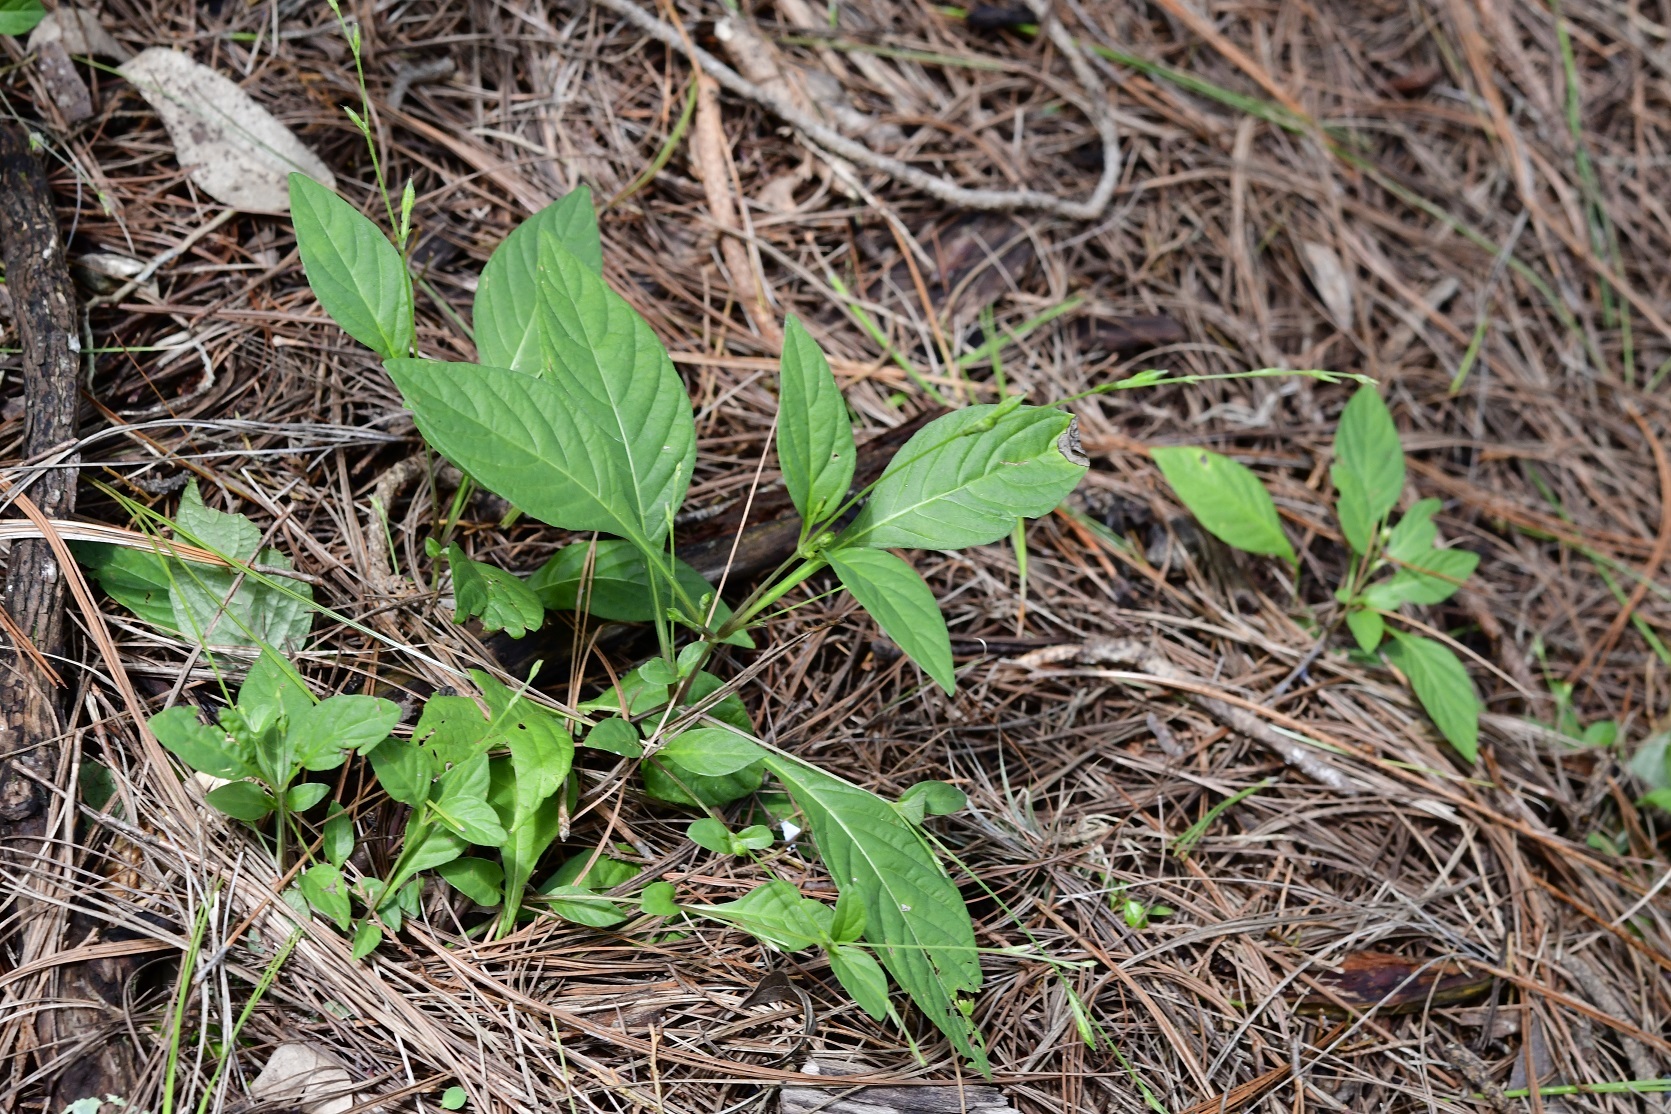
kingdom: Plantae
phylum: Tracheophyta
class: Magnoliopsida
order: Lamiales
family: Acanthaceae
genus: Pseuderanthemum
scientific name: Pseuderanthemum praecox
